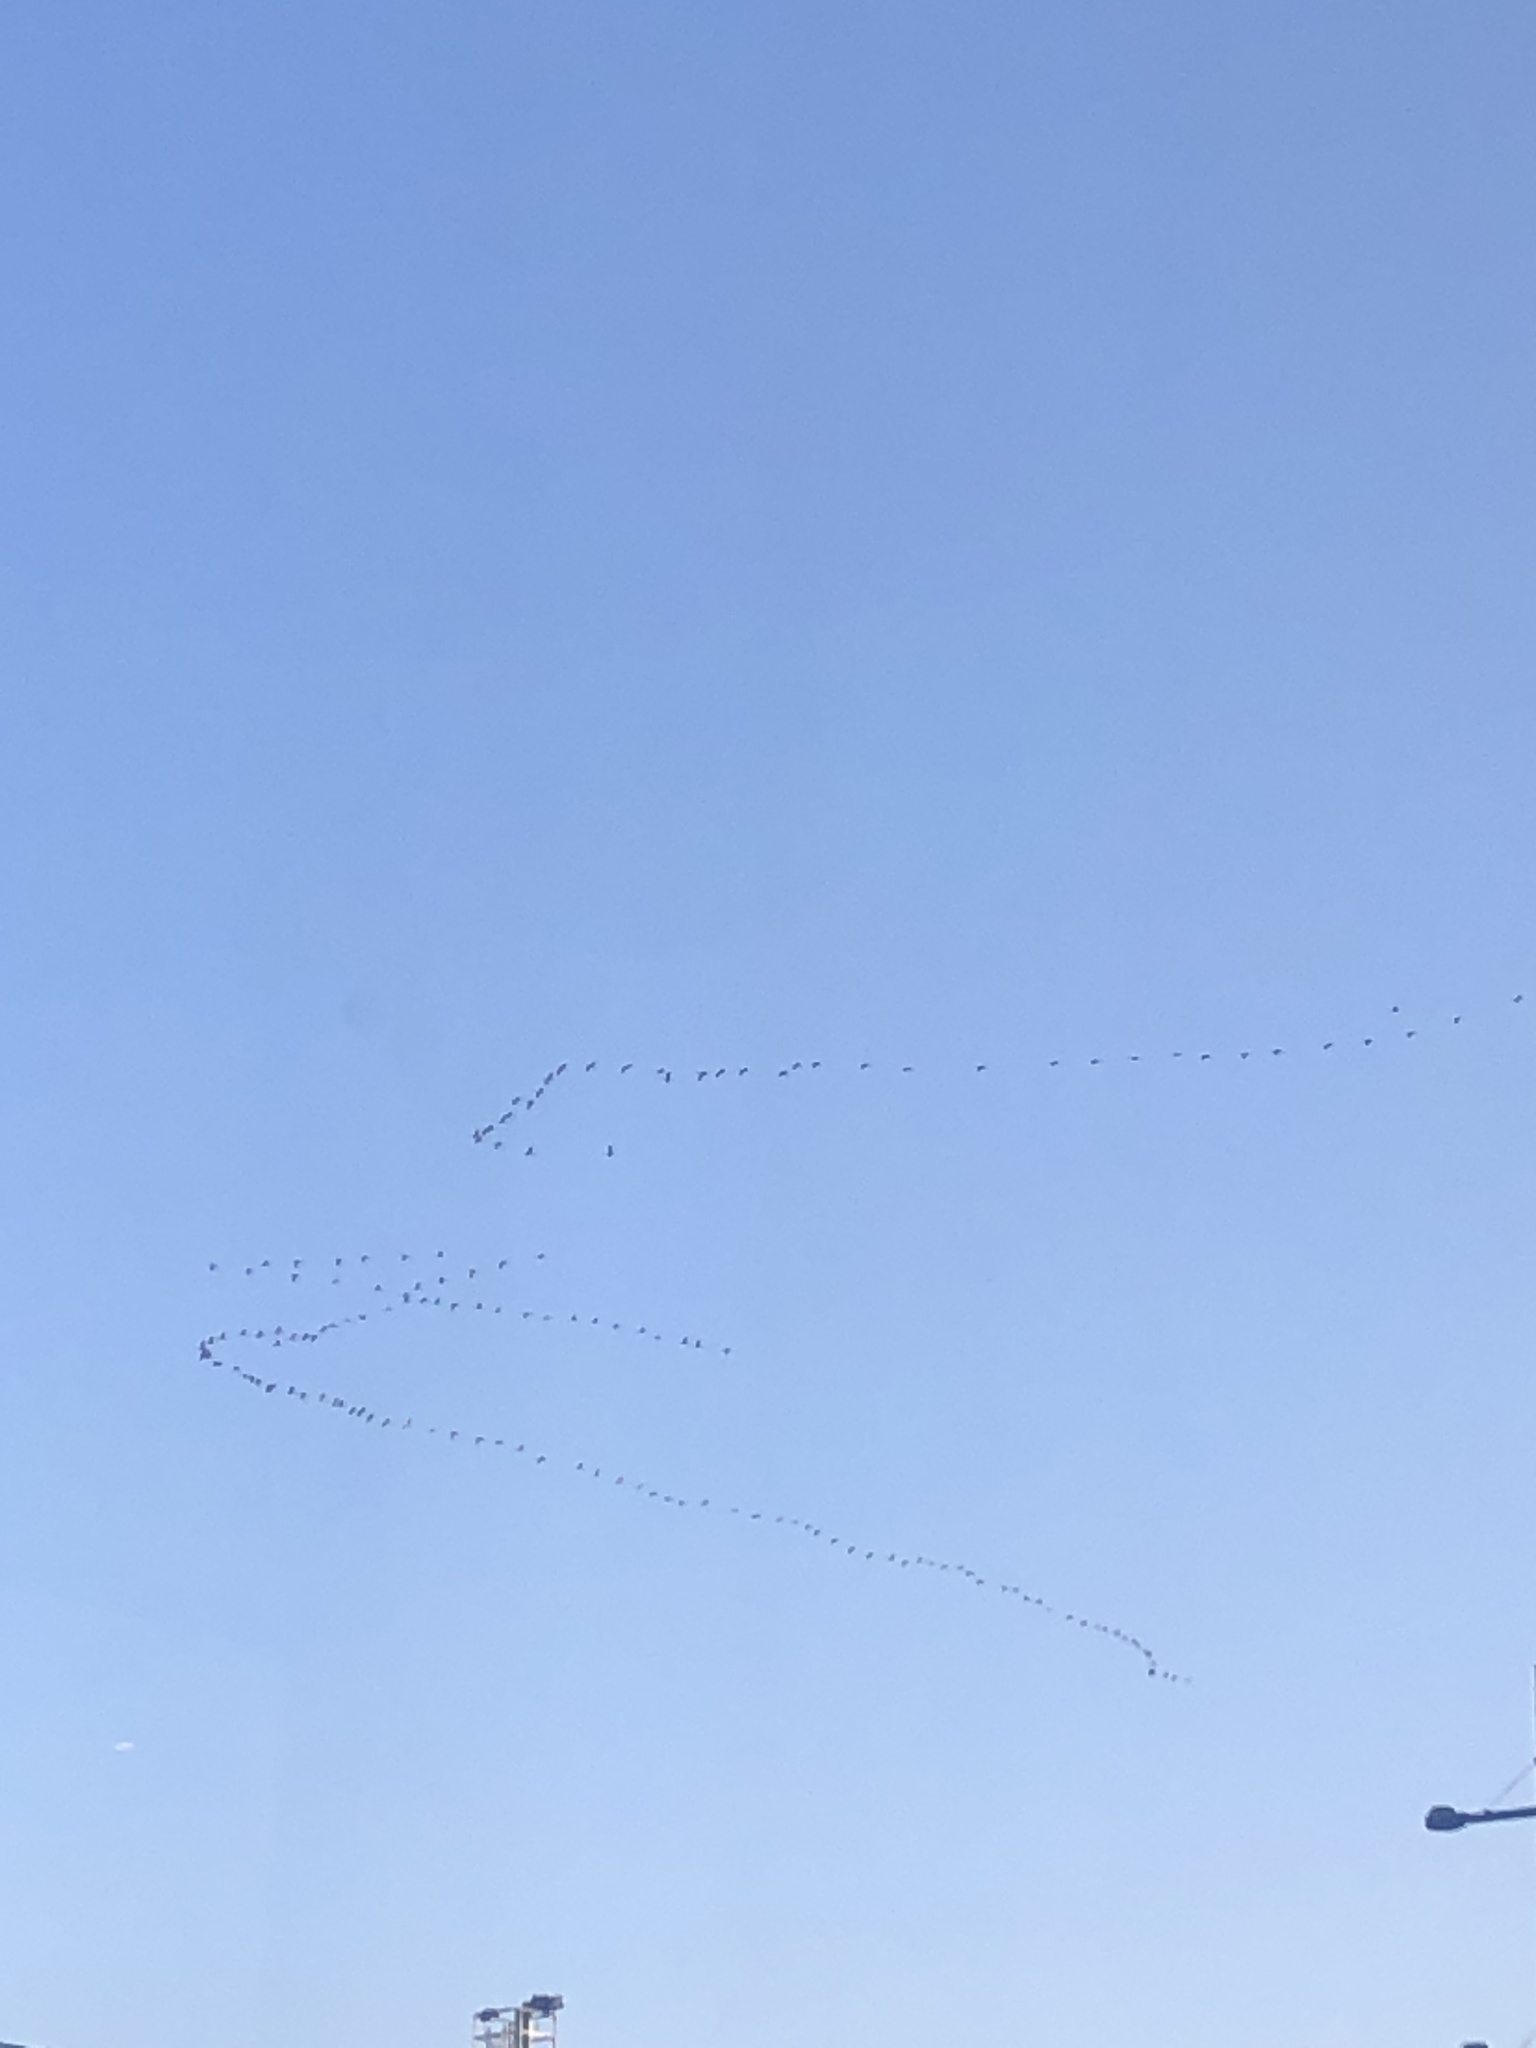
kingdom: Animalia
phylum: Chordata
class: Aves
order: Gruiformes
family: Gruidae
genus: Grus
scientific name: Grus grus
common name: Common crane
